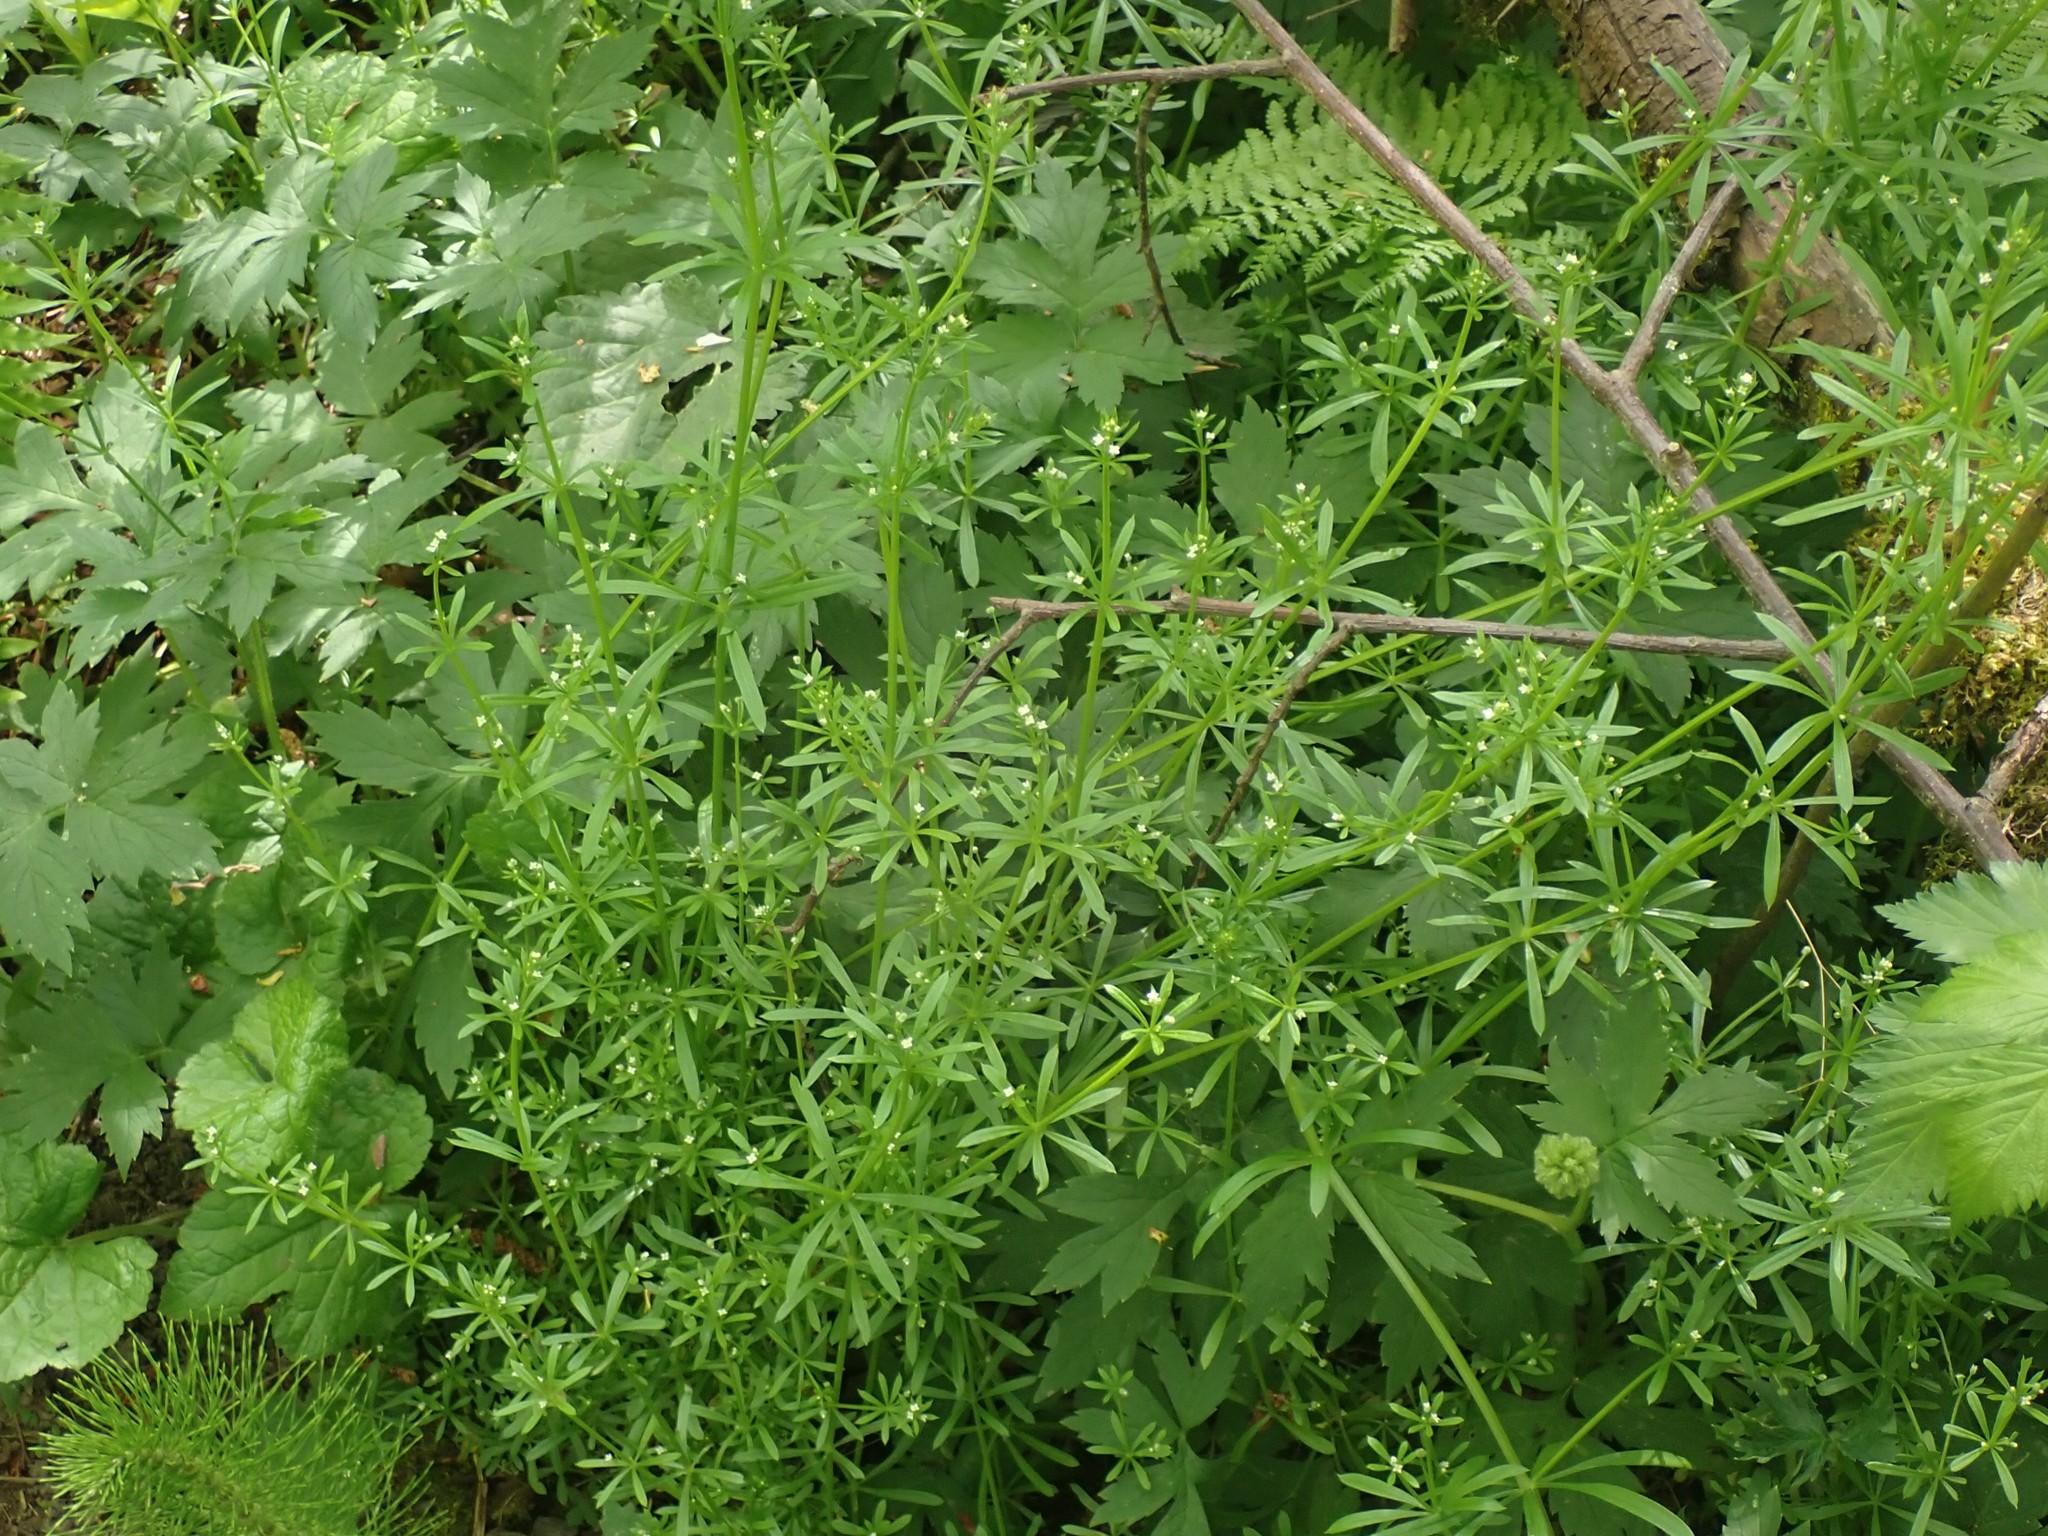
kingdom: Plantae
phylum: Tracheophyta
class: Magnoliopsida
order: Gentianales
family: Rubiaceae
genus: Galium
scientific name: Galium aparine
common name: Cleavers
